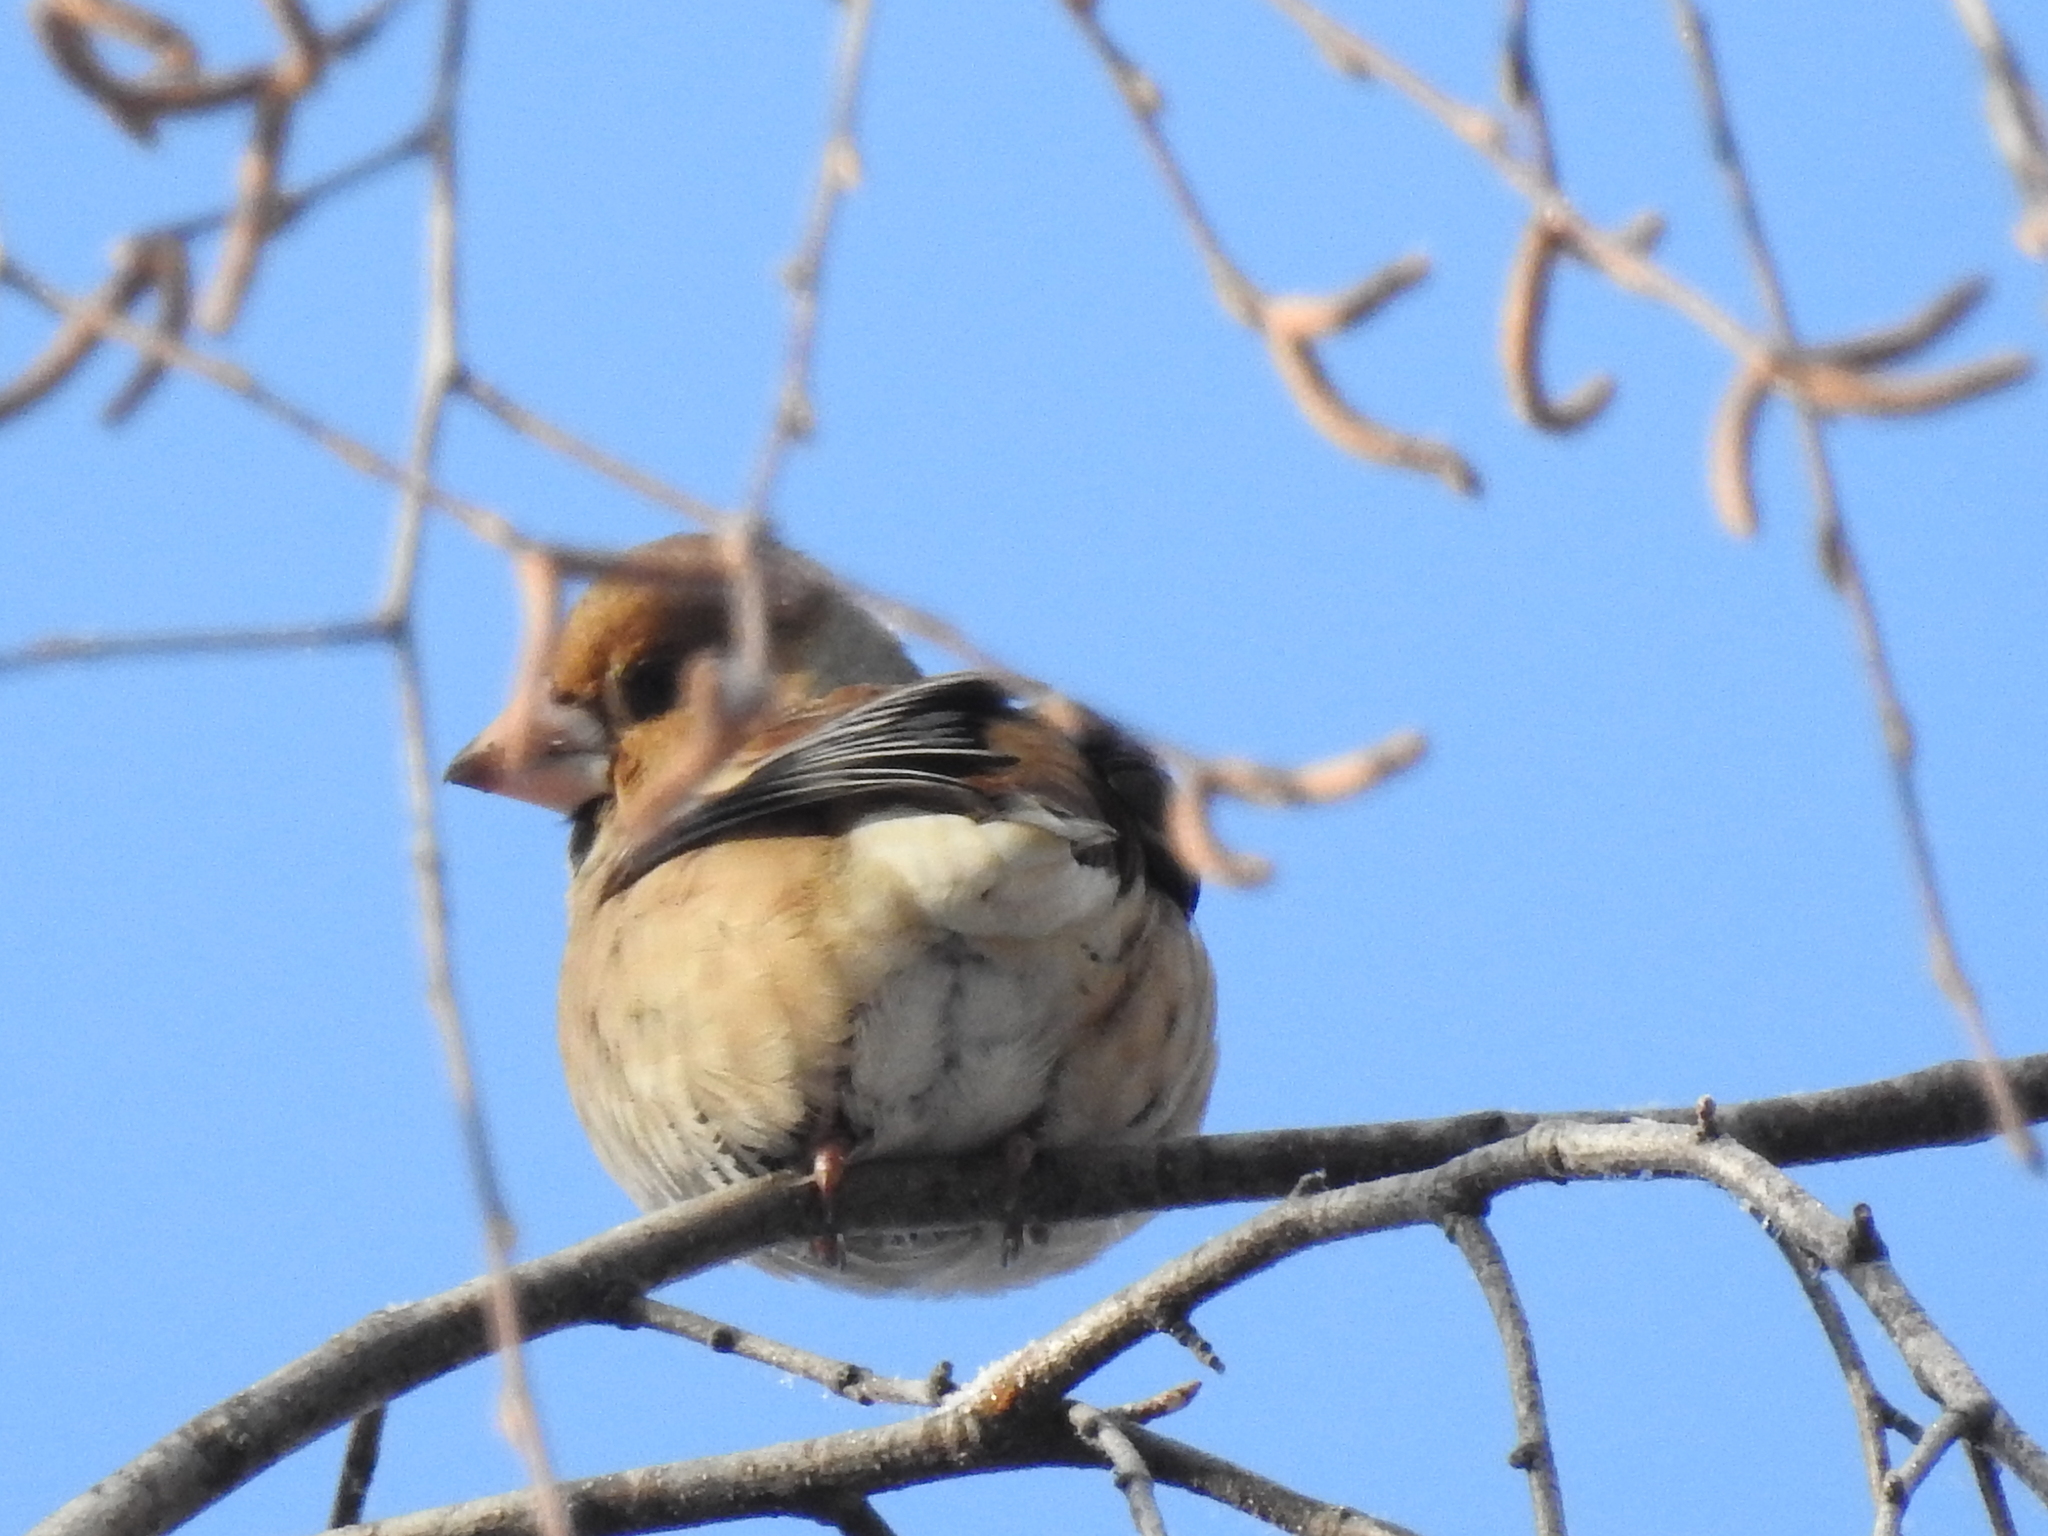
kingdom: Animalia
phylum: Chordata
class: Aves
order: Passeriformes
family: Fringillidae
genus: Coccothraustes
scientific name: Coccothraustes coccothraustes
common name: Hawfinch
